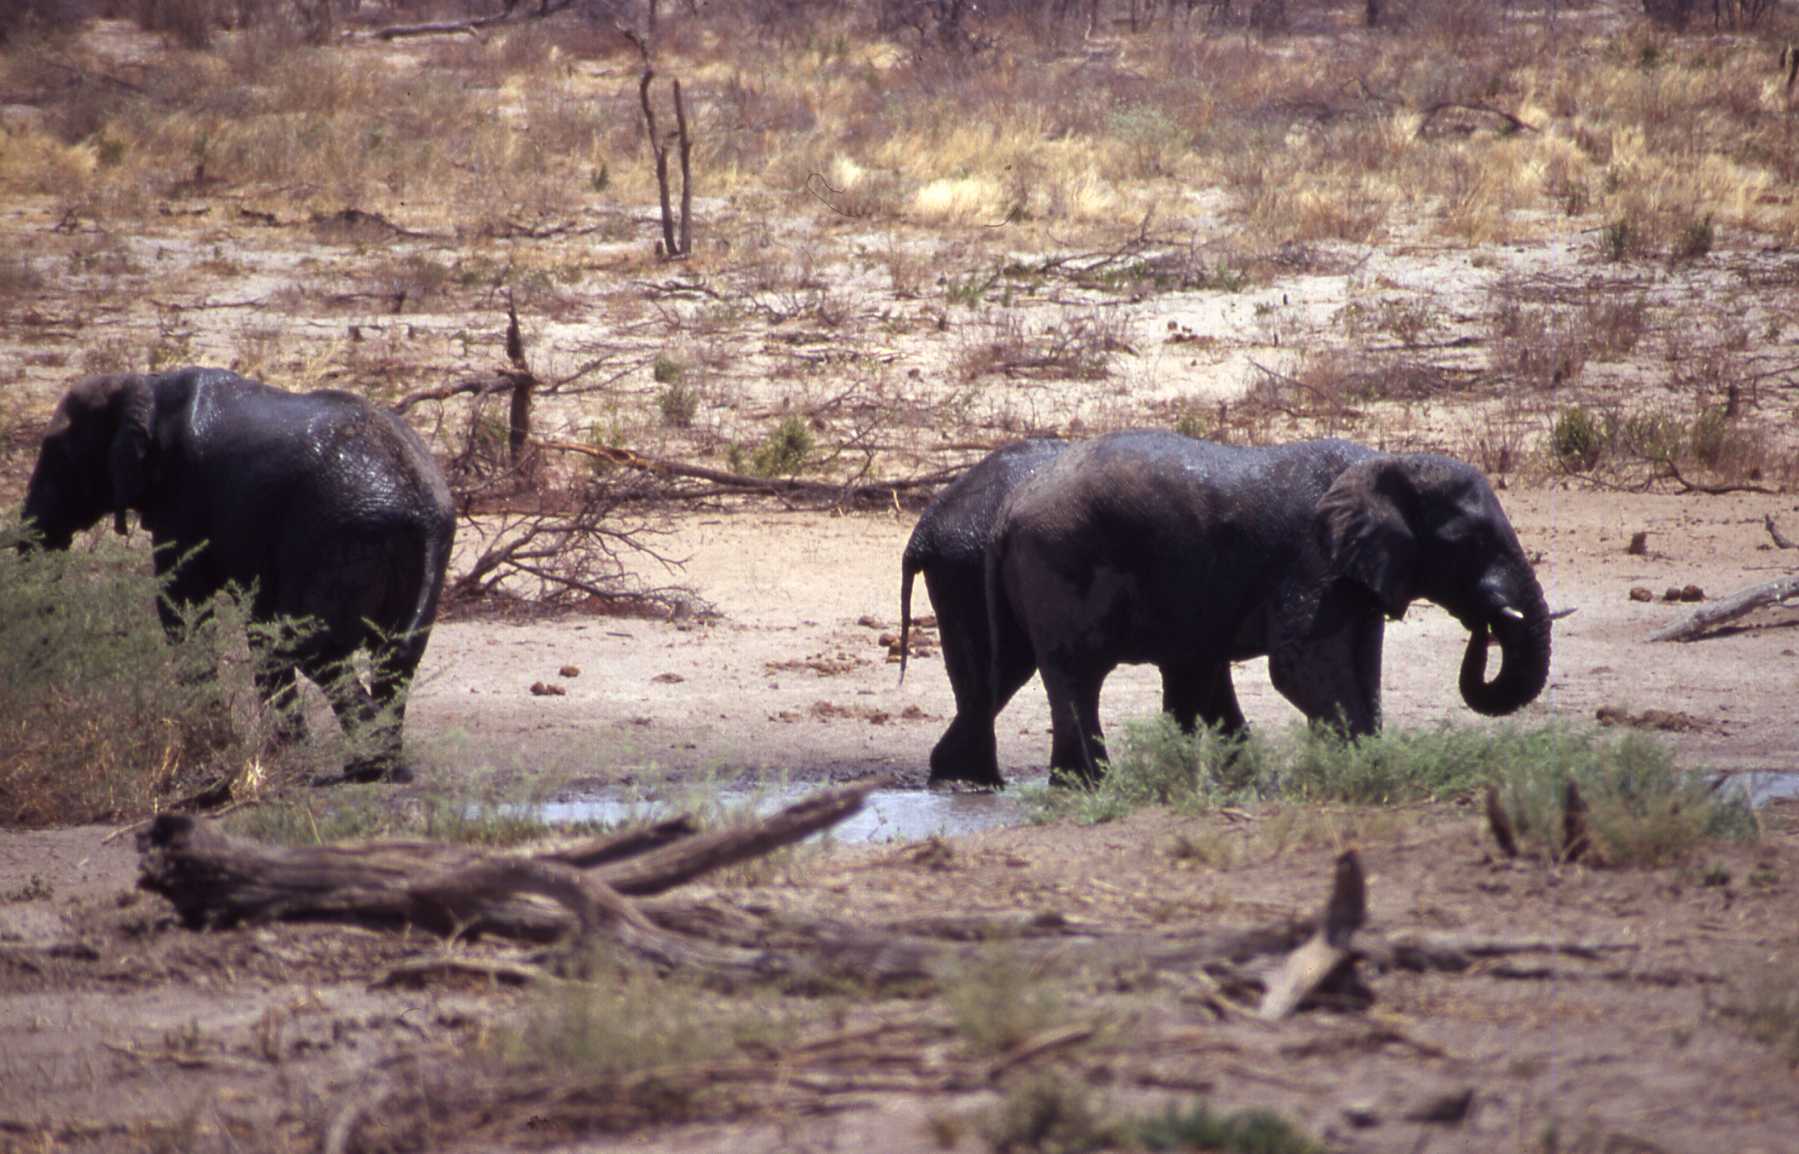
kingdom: Animalia
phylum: Chordata
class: Mammalia
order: Proboscidea
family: Elephantidae
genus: Loxodonta
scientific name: Loxodonta africana
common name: African elephant
